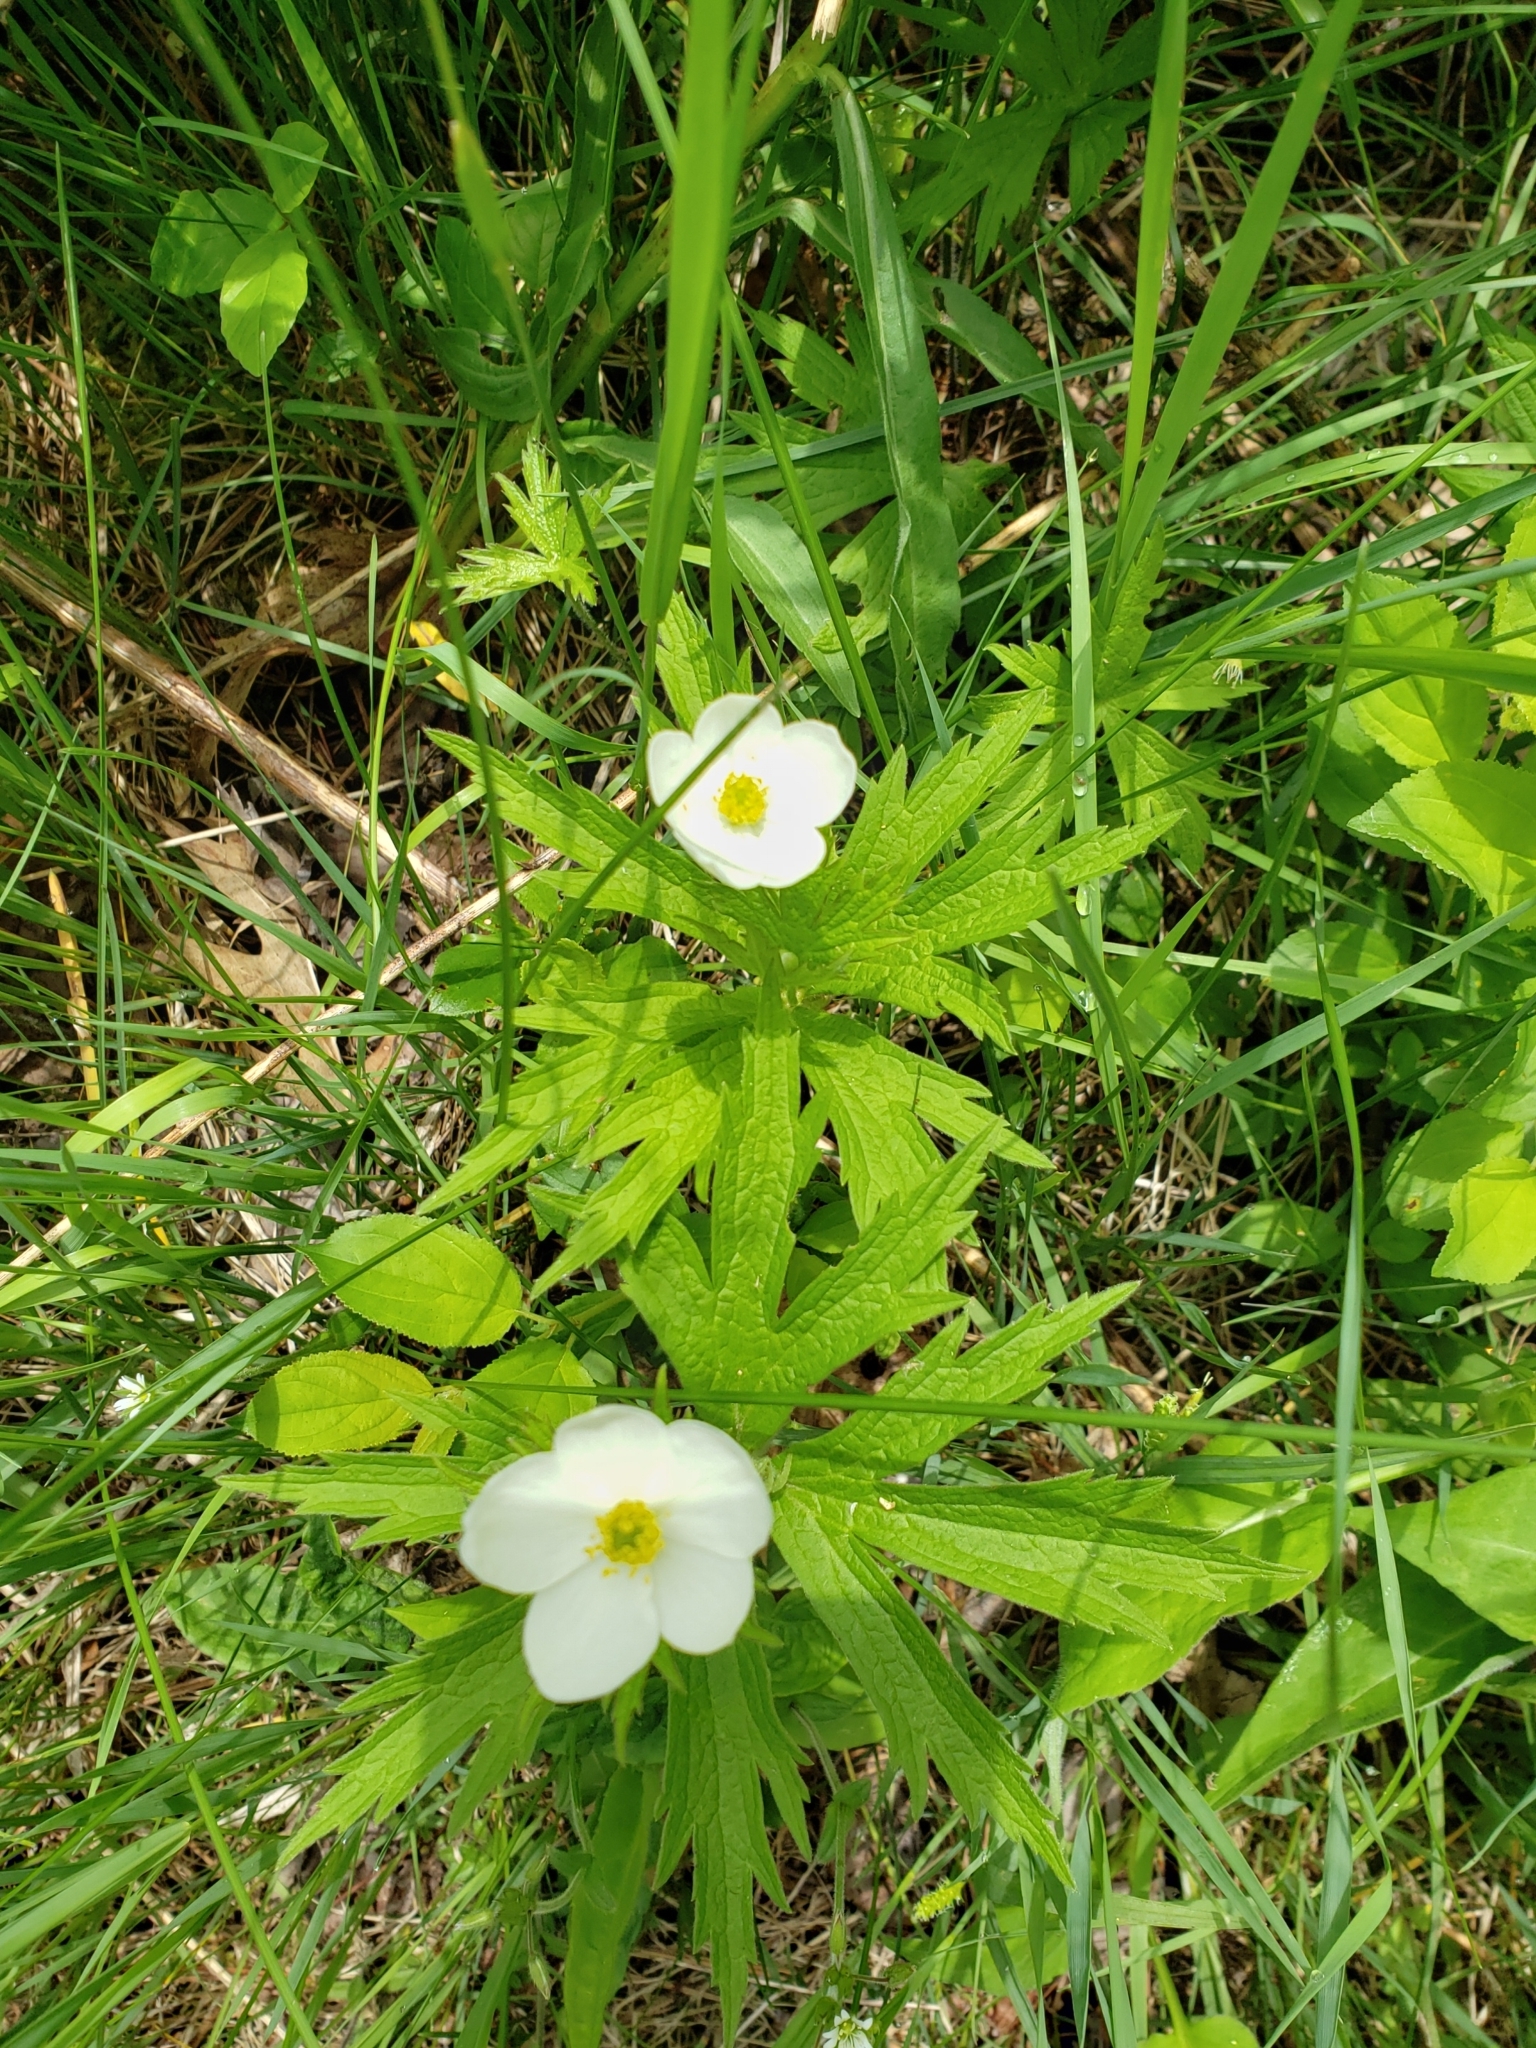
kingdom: Plantae
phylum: Tracheophyta
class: Magnoliopsida
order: Ranunculales
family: Ranunculaceae
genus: Anemonastrum
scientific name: Anemonastrum canadense
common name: Canada anemone
